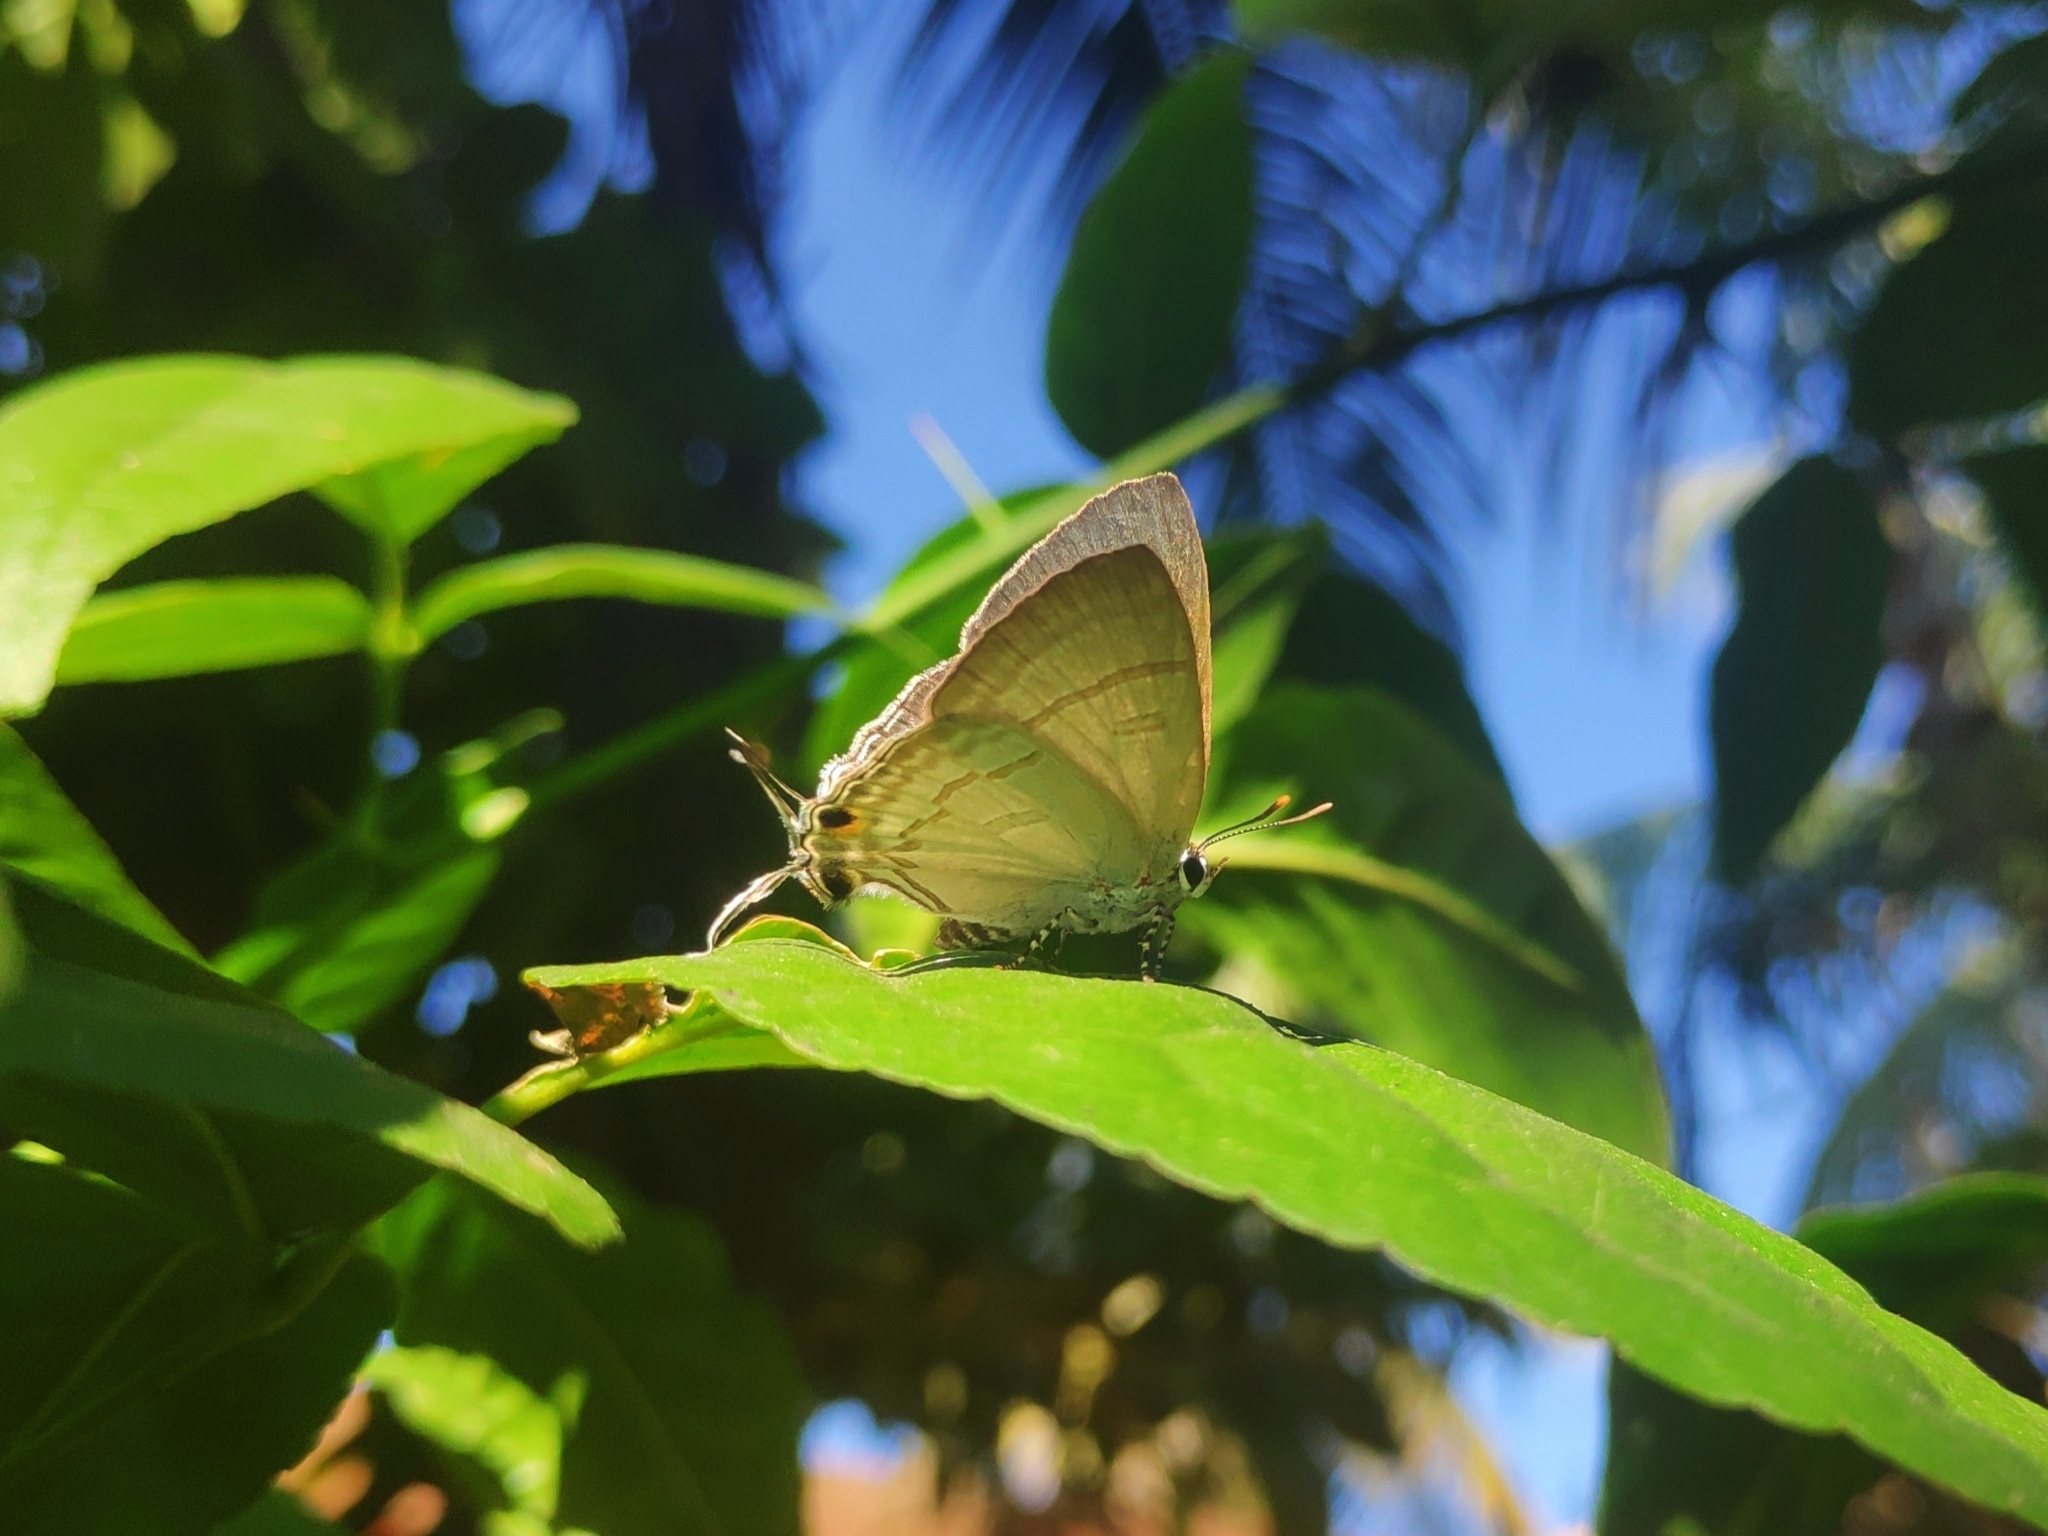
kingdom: Animalia
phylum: Arthropoda
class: Insecta
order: Lepidoptera
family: Lycaenidae
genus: Hypolycaena
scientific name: Hypolycaena erylus
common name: Common tit
